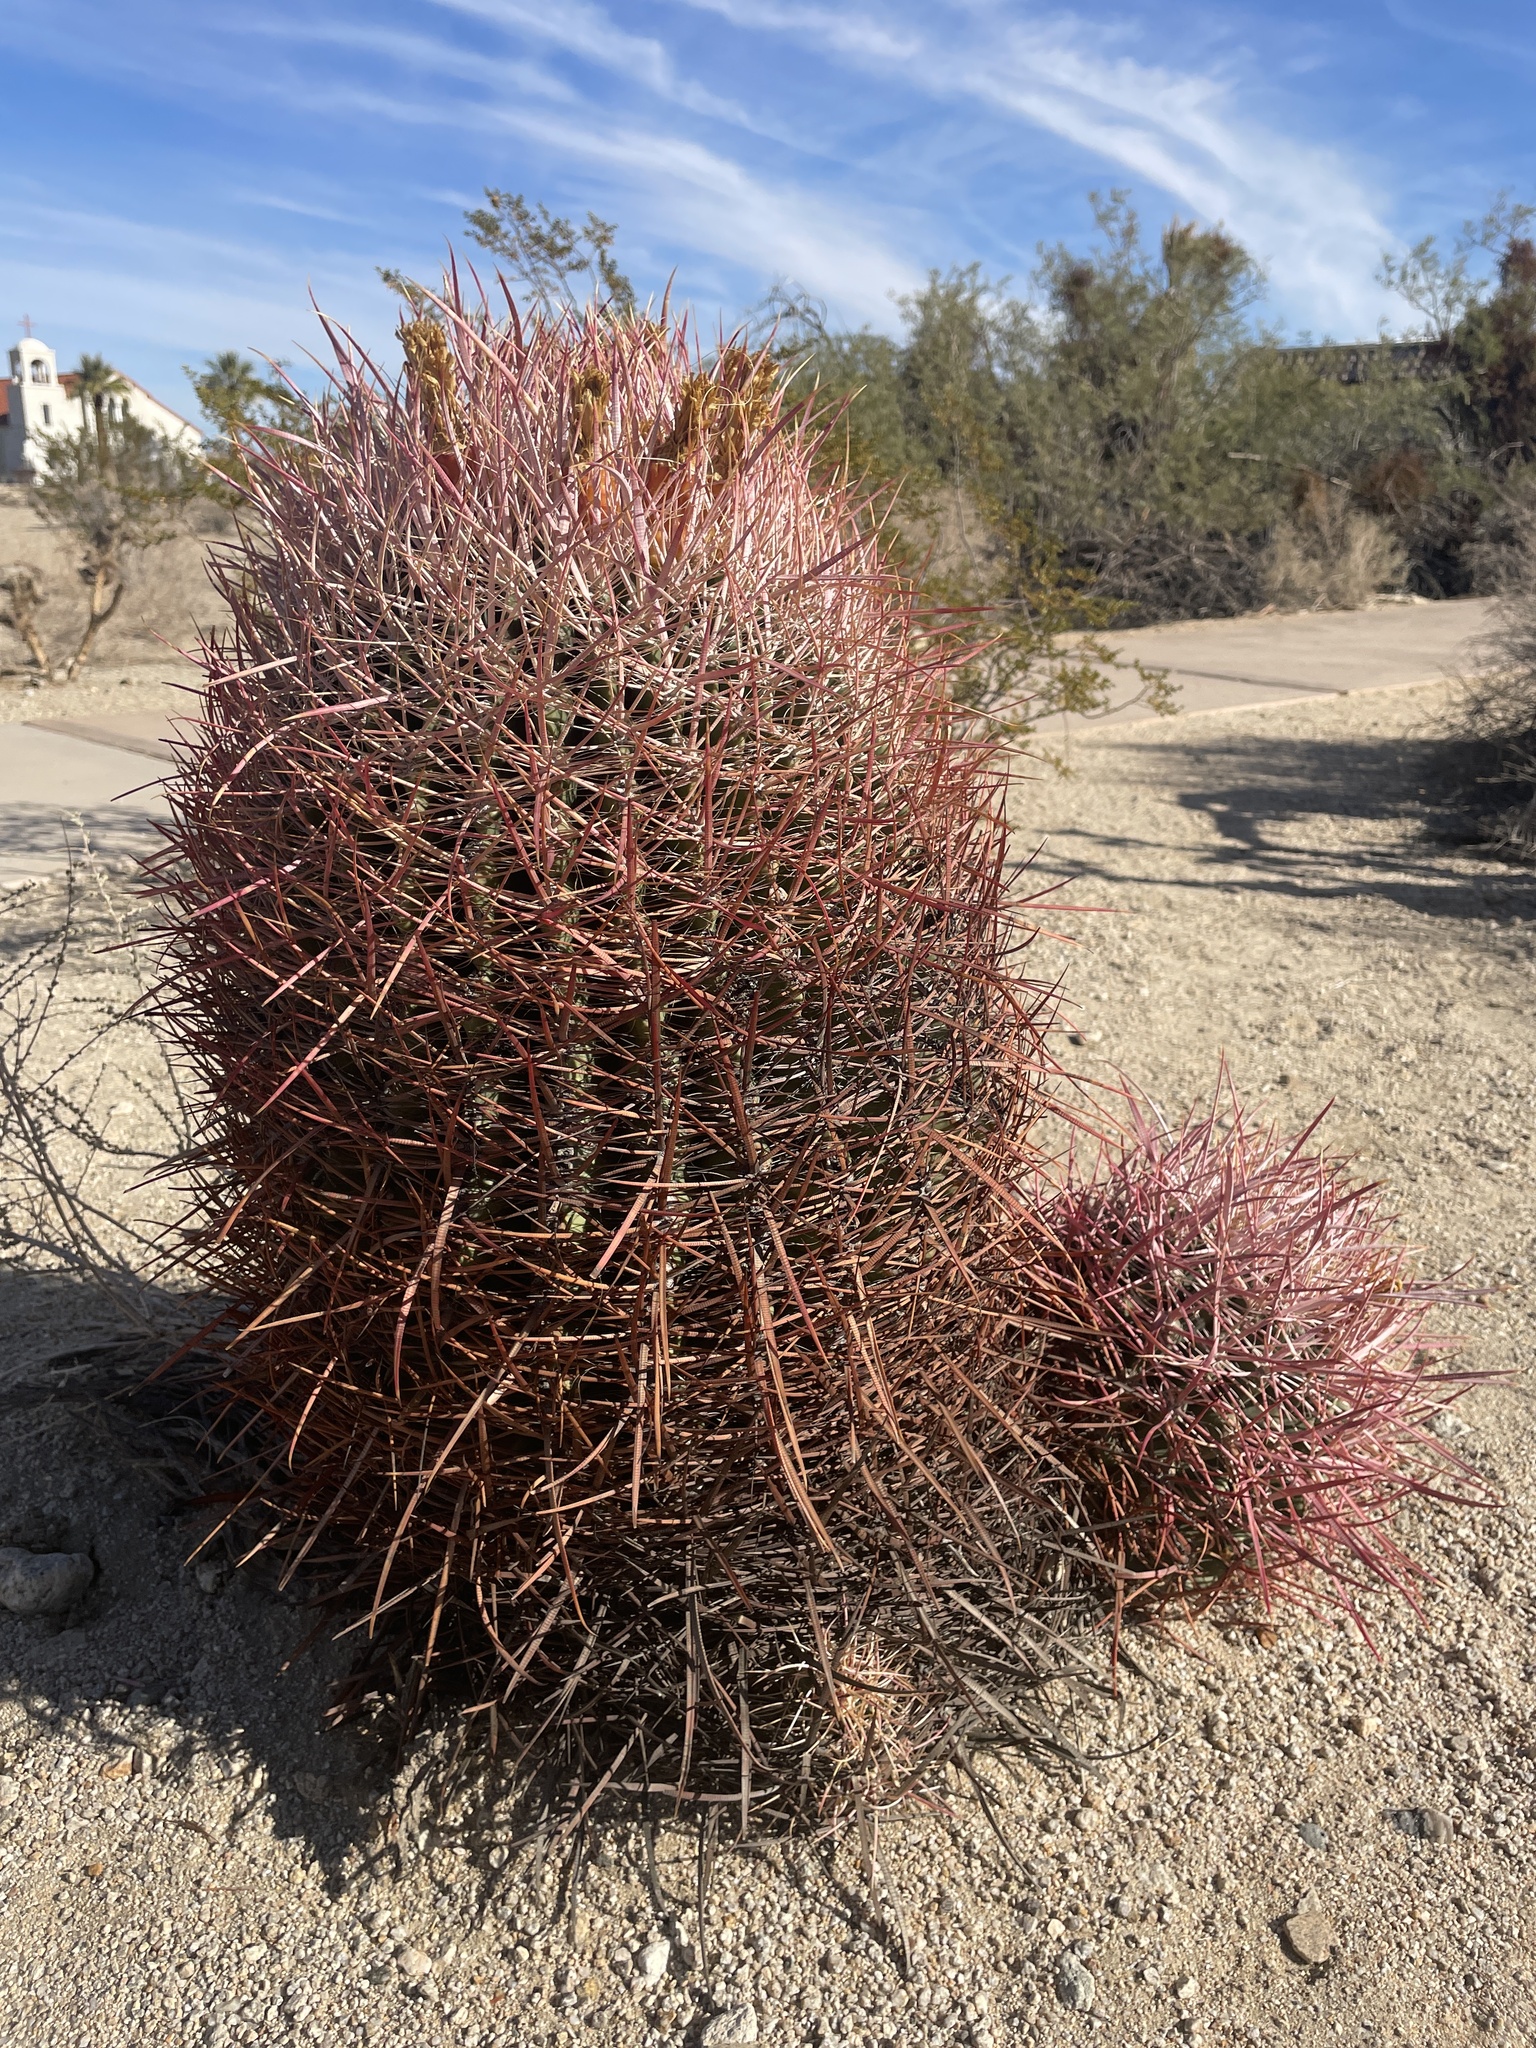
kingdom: Plantae
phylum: Tracheophyta
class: Magnoliopsida
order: Caryophyllales
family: Cactaceae
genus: Ferocactus
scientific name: Ferocactus cylindraceus
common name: California barrel cactus
